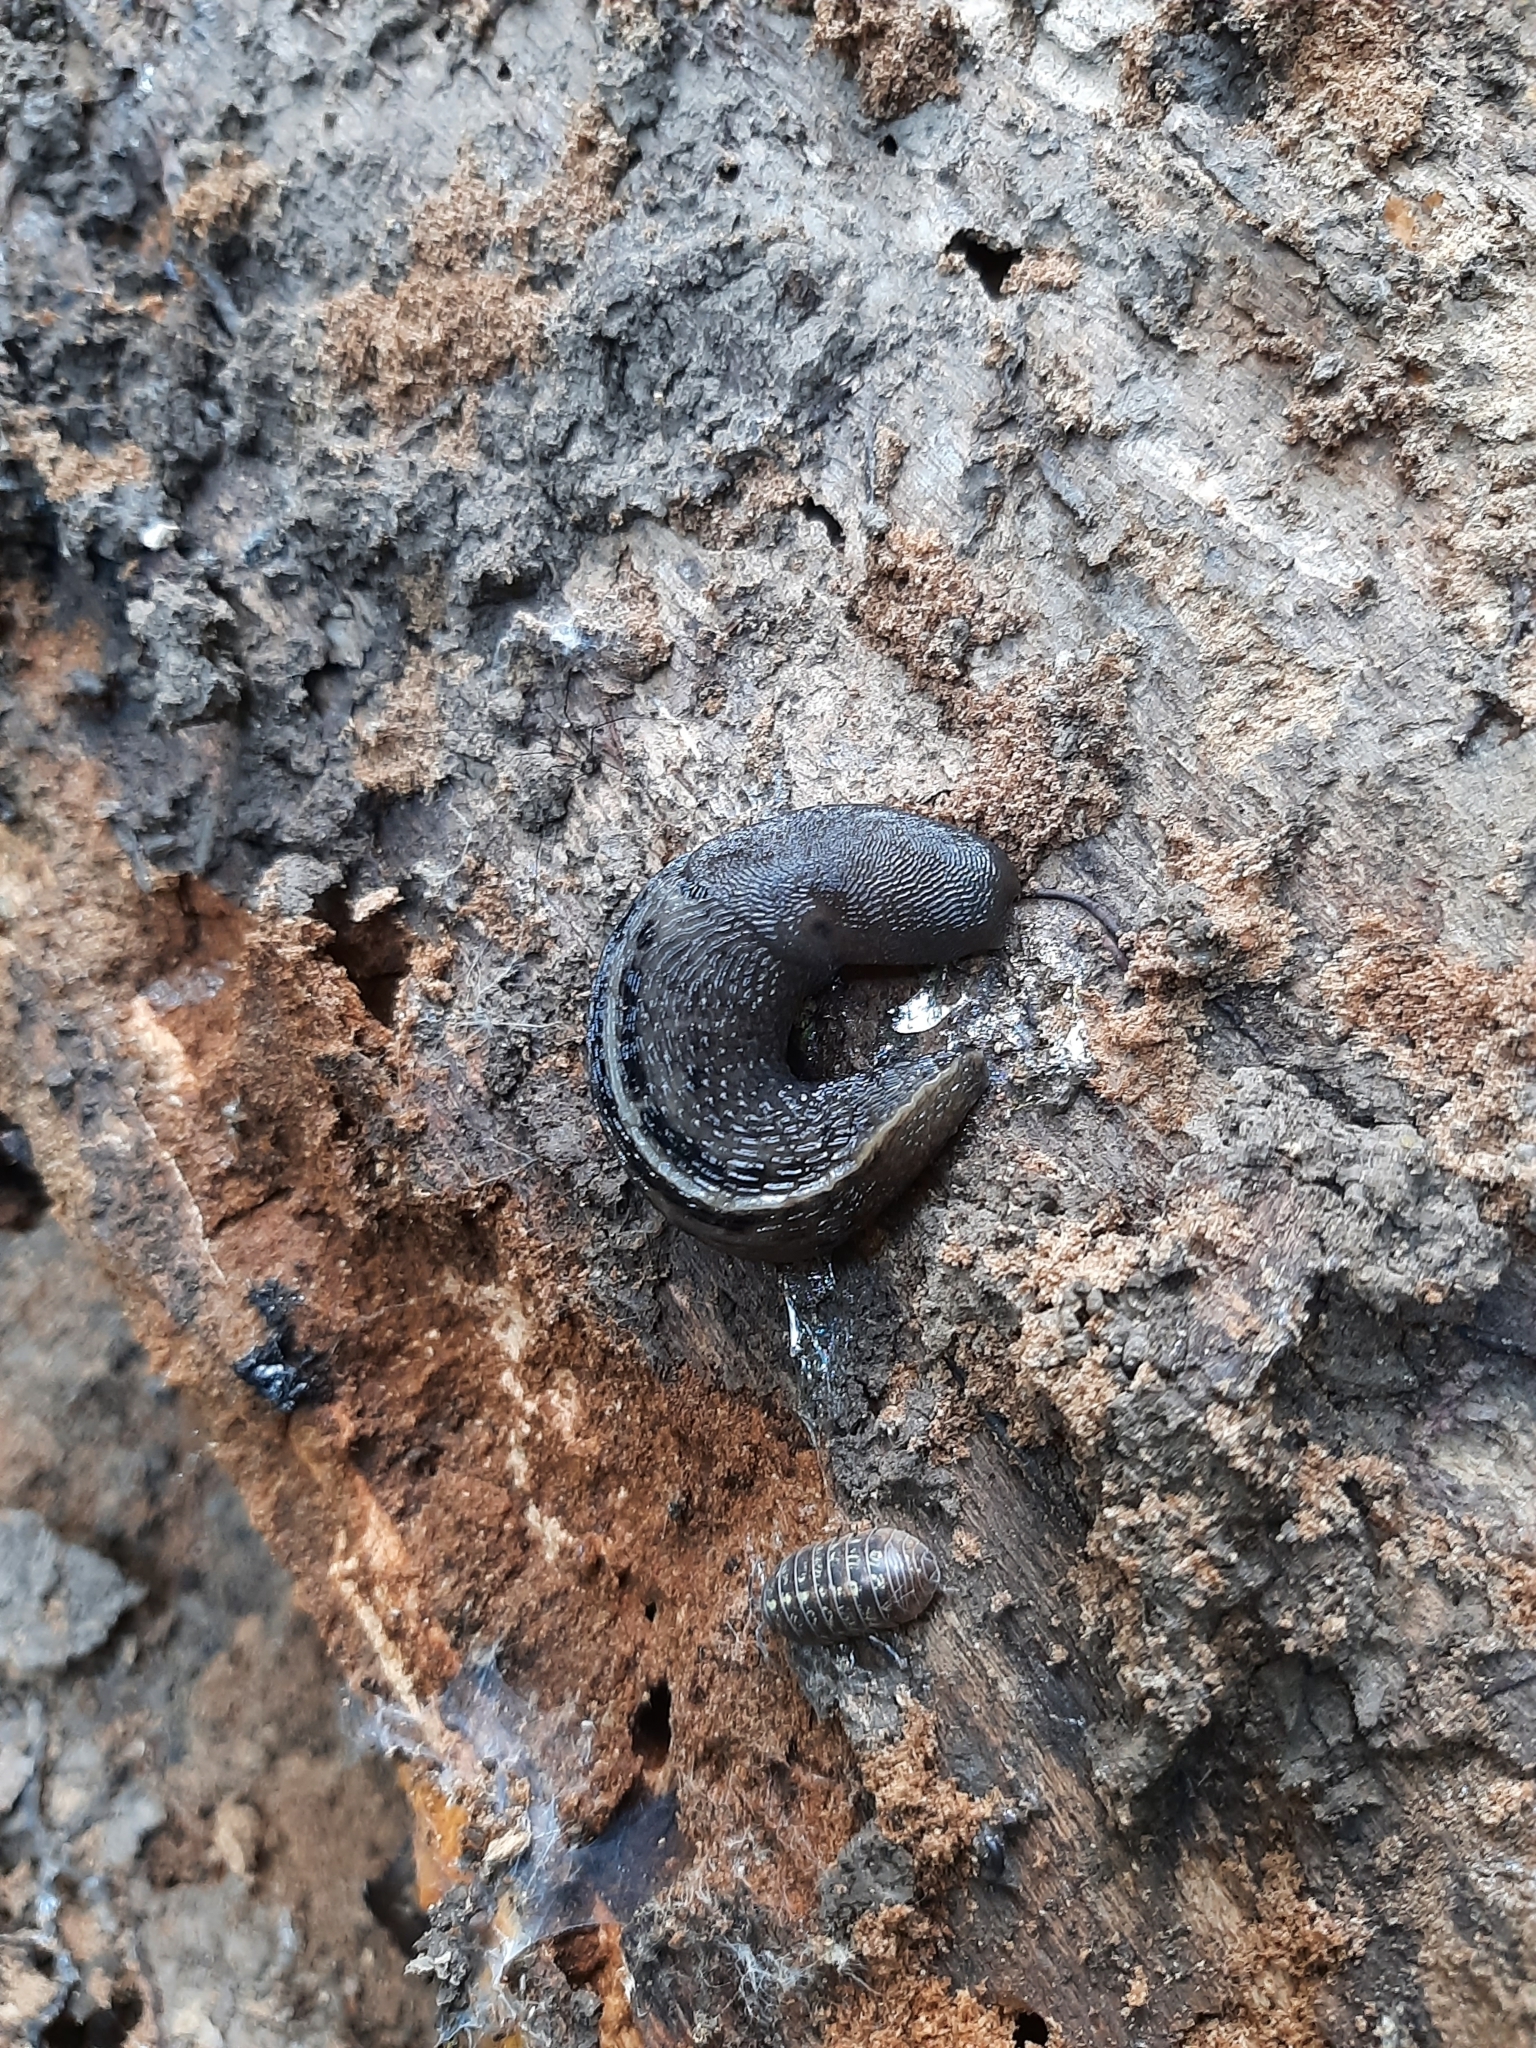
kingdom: Animalia
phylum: Mollusca
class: Gastropoda
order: Stylommatophora
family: Limacidae
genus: Limax
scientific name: Limax cinereoniger
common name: Ash-black slug
